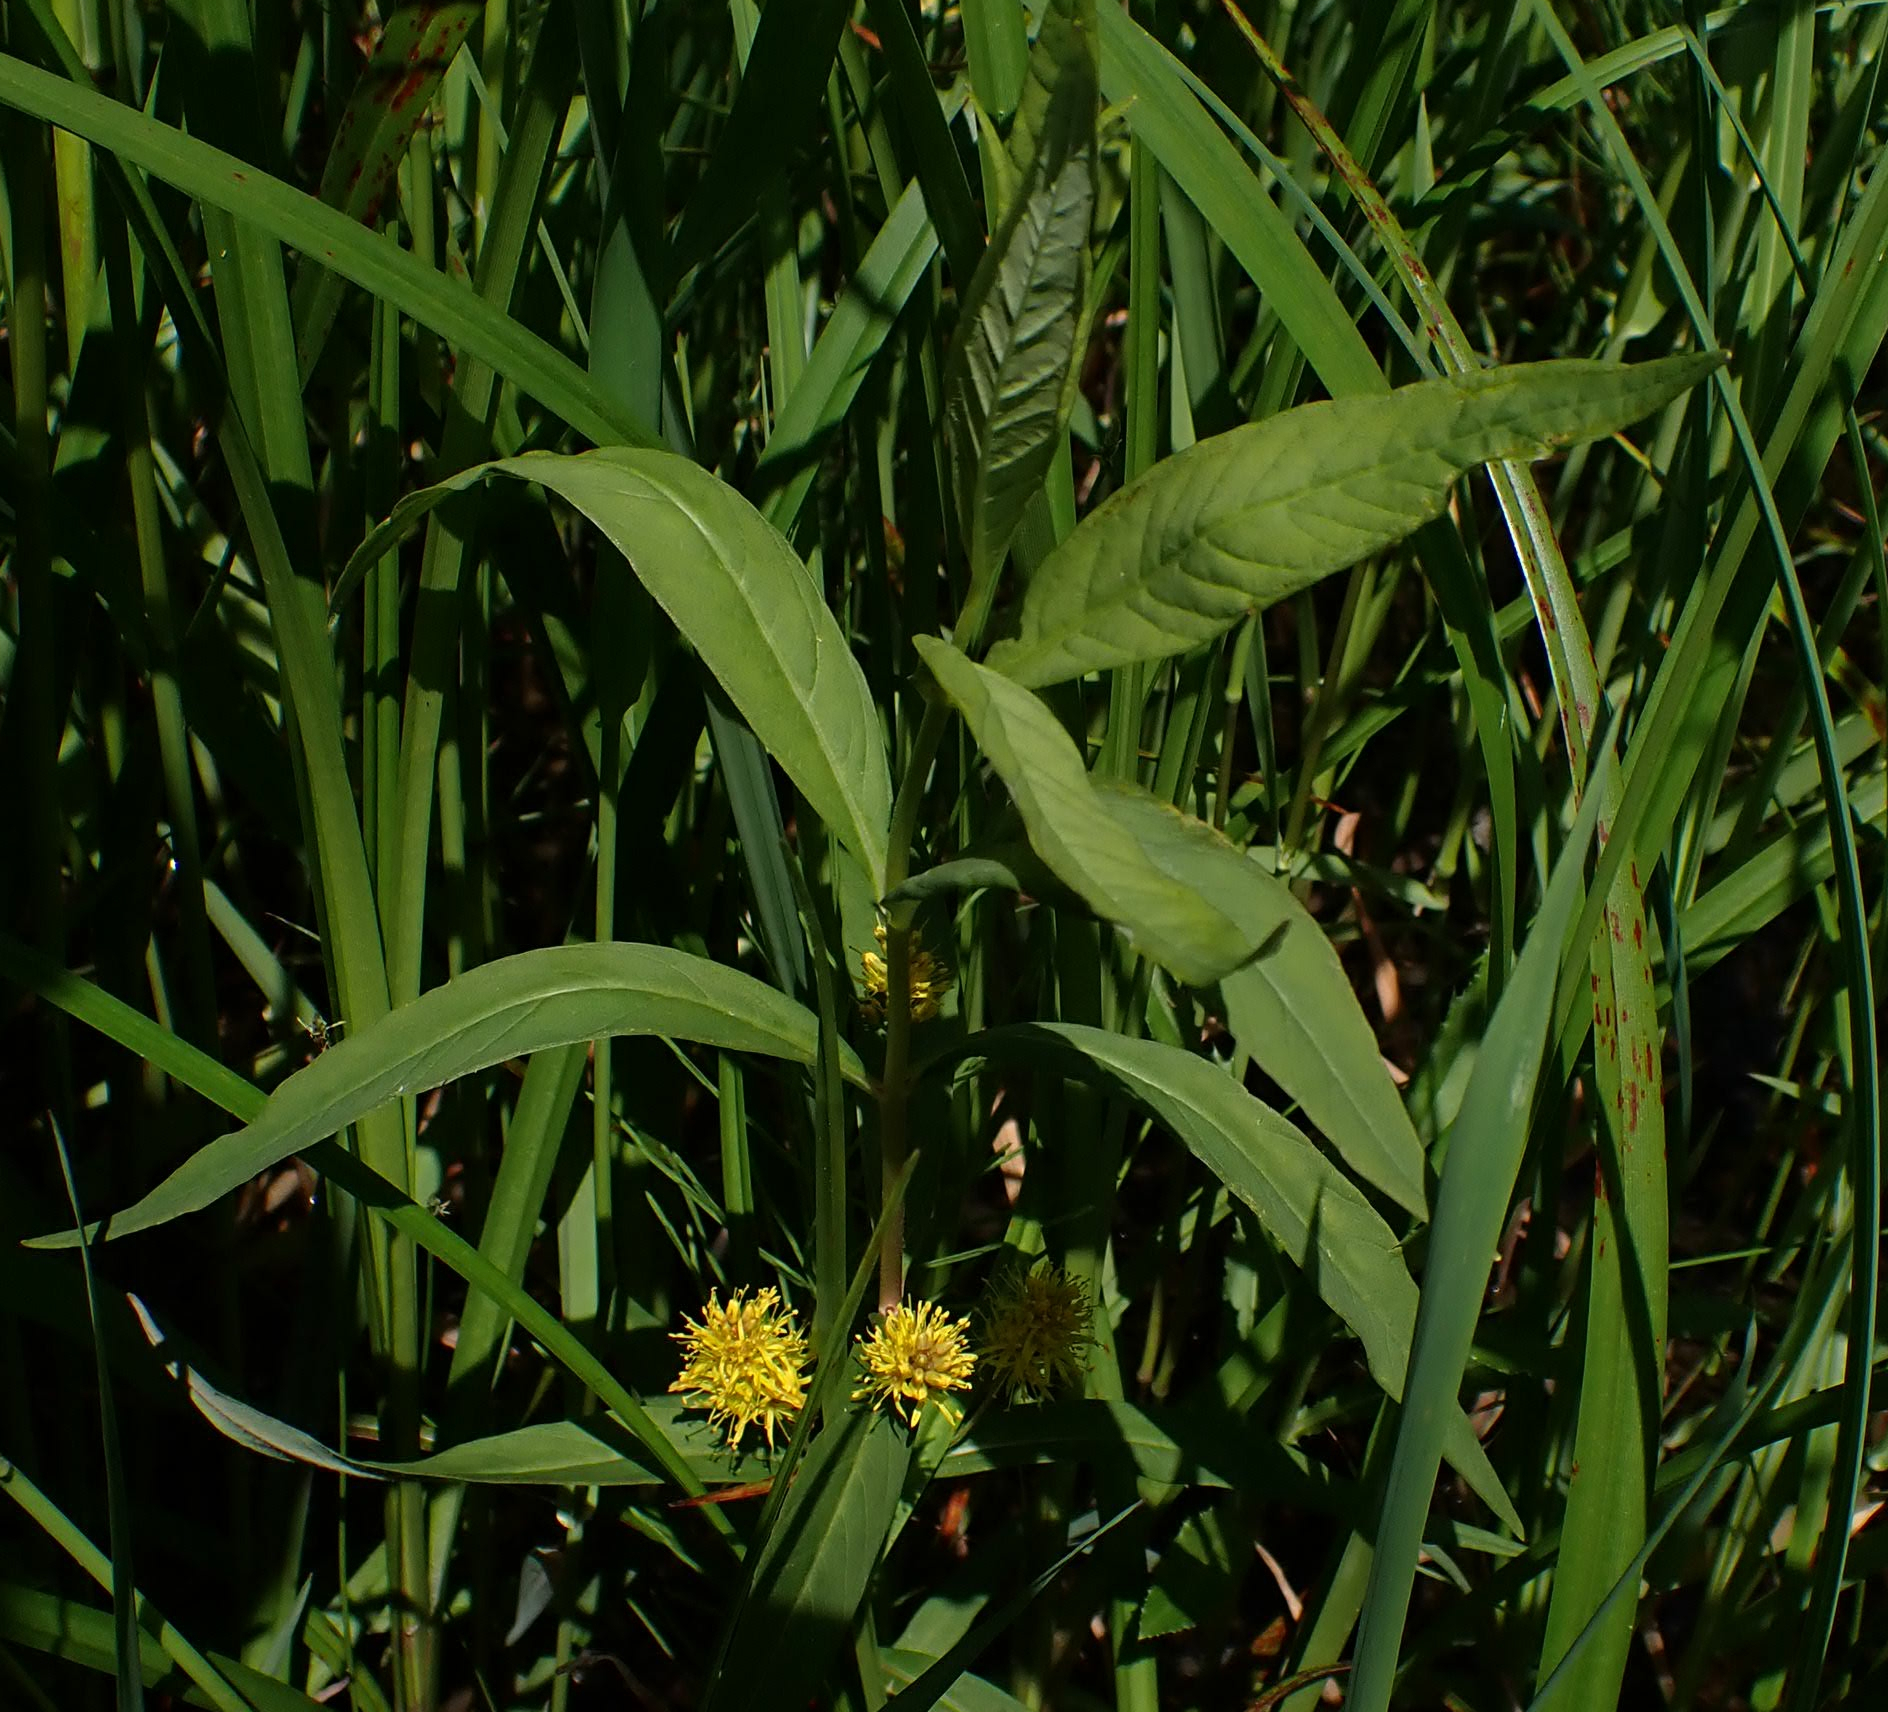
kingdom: Plantae
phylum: Tracheophyta
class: Magnoliopsida
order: Ericales
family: Primulaceae
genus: Lysimachia
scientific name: Lysimachia thyrsiflora
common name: Tufted loosestrife
